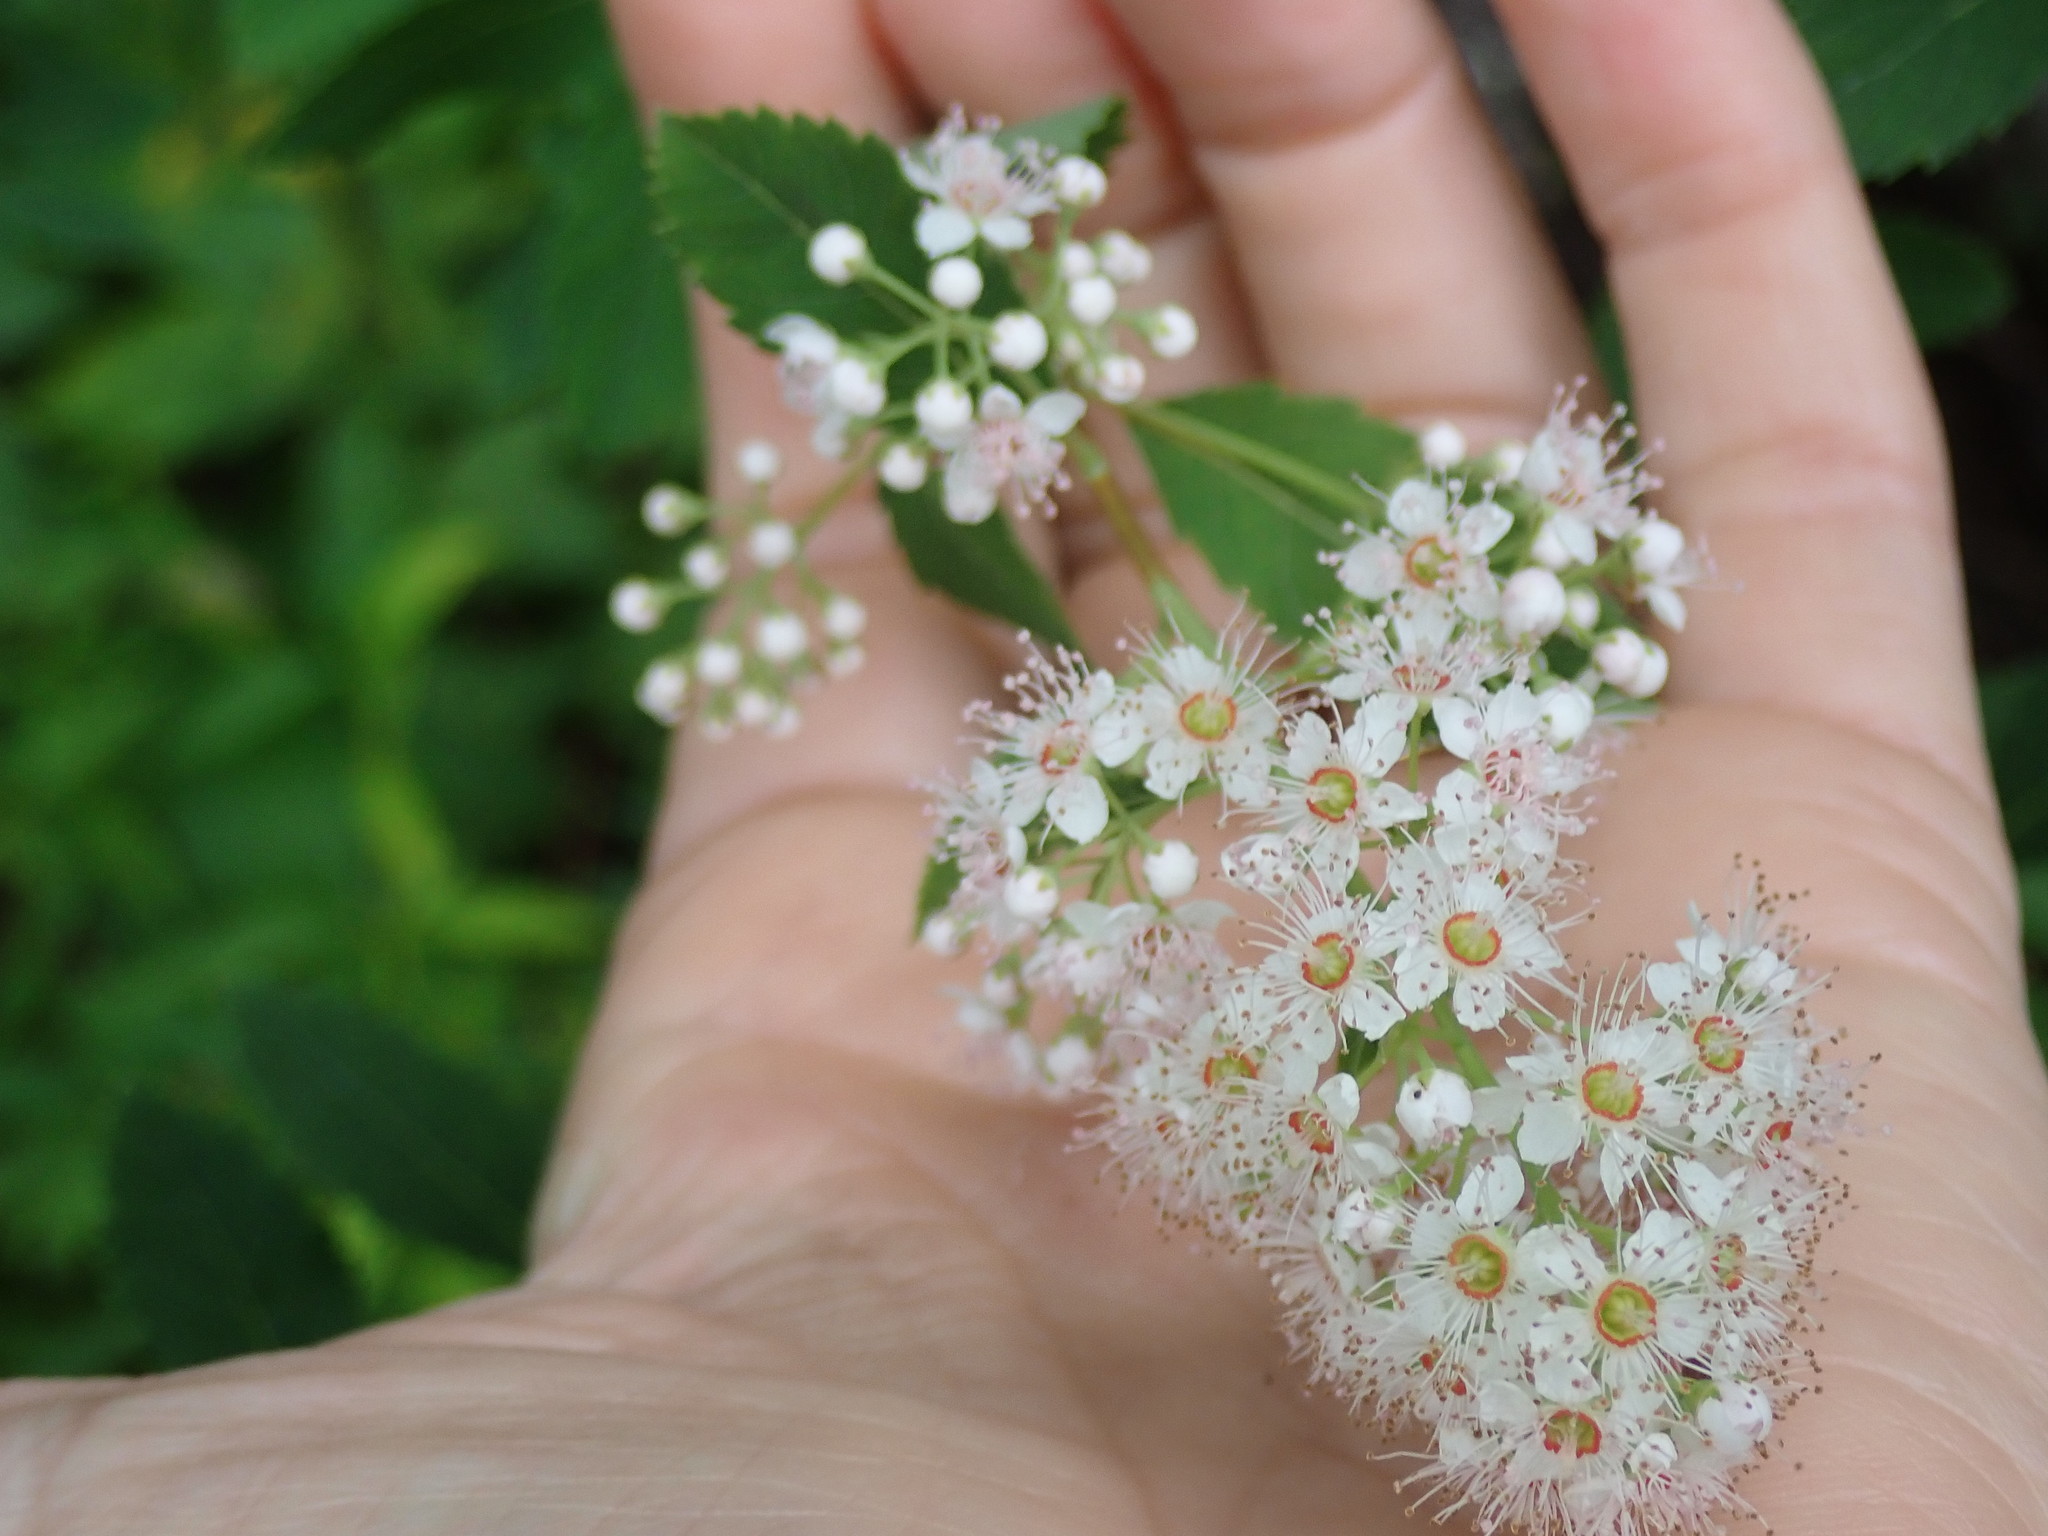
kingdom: Plantae
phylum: Tracheophyta
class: Magnoliopsida
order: Rosales
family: Rosaceae
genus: Spiraea
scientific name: Spiraea alba
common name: Pale bridewort
